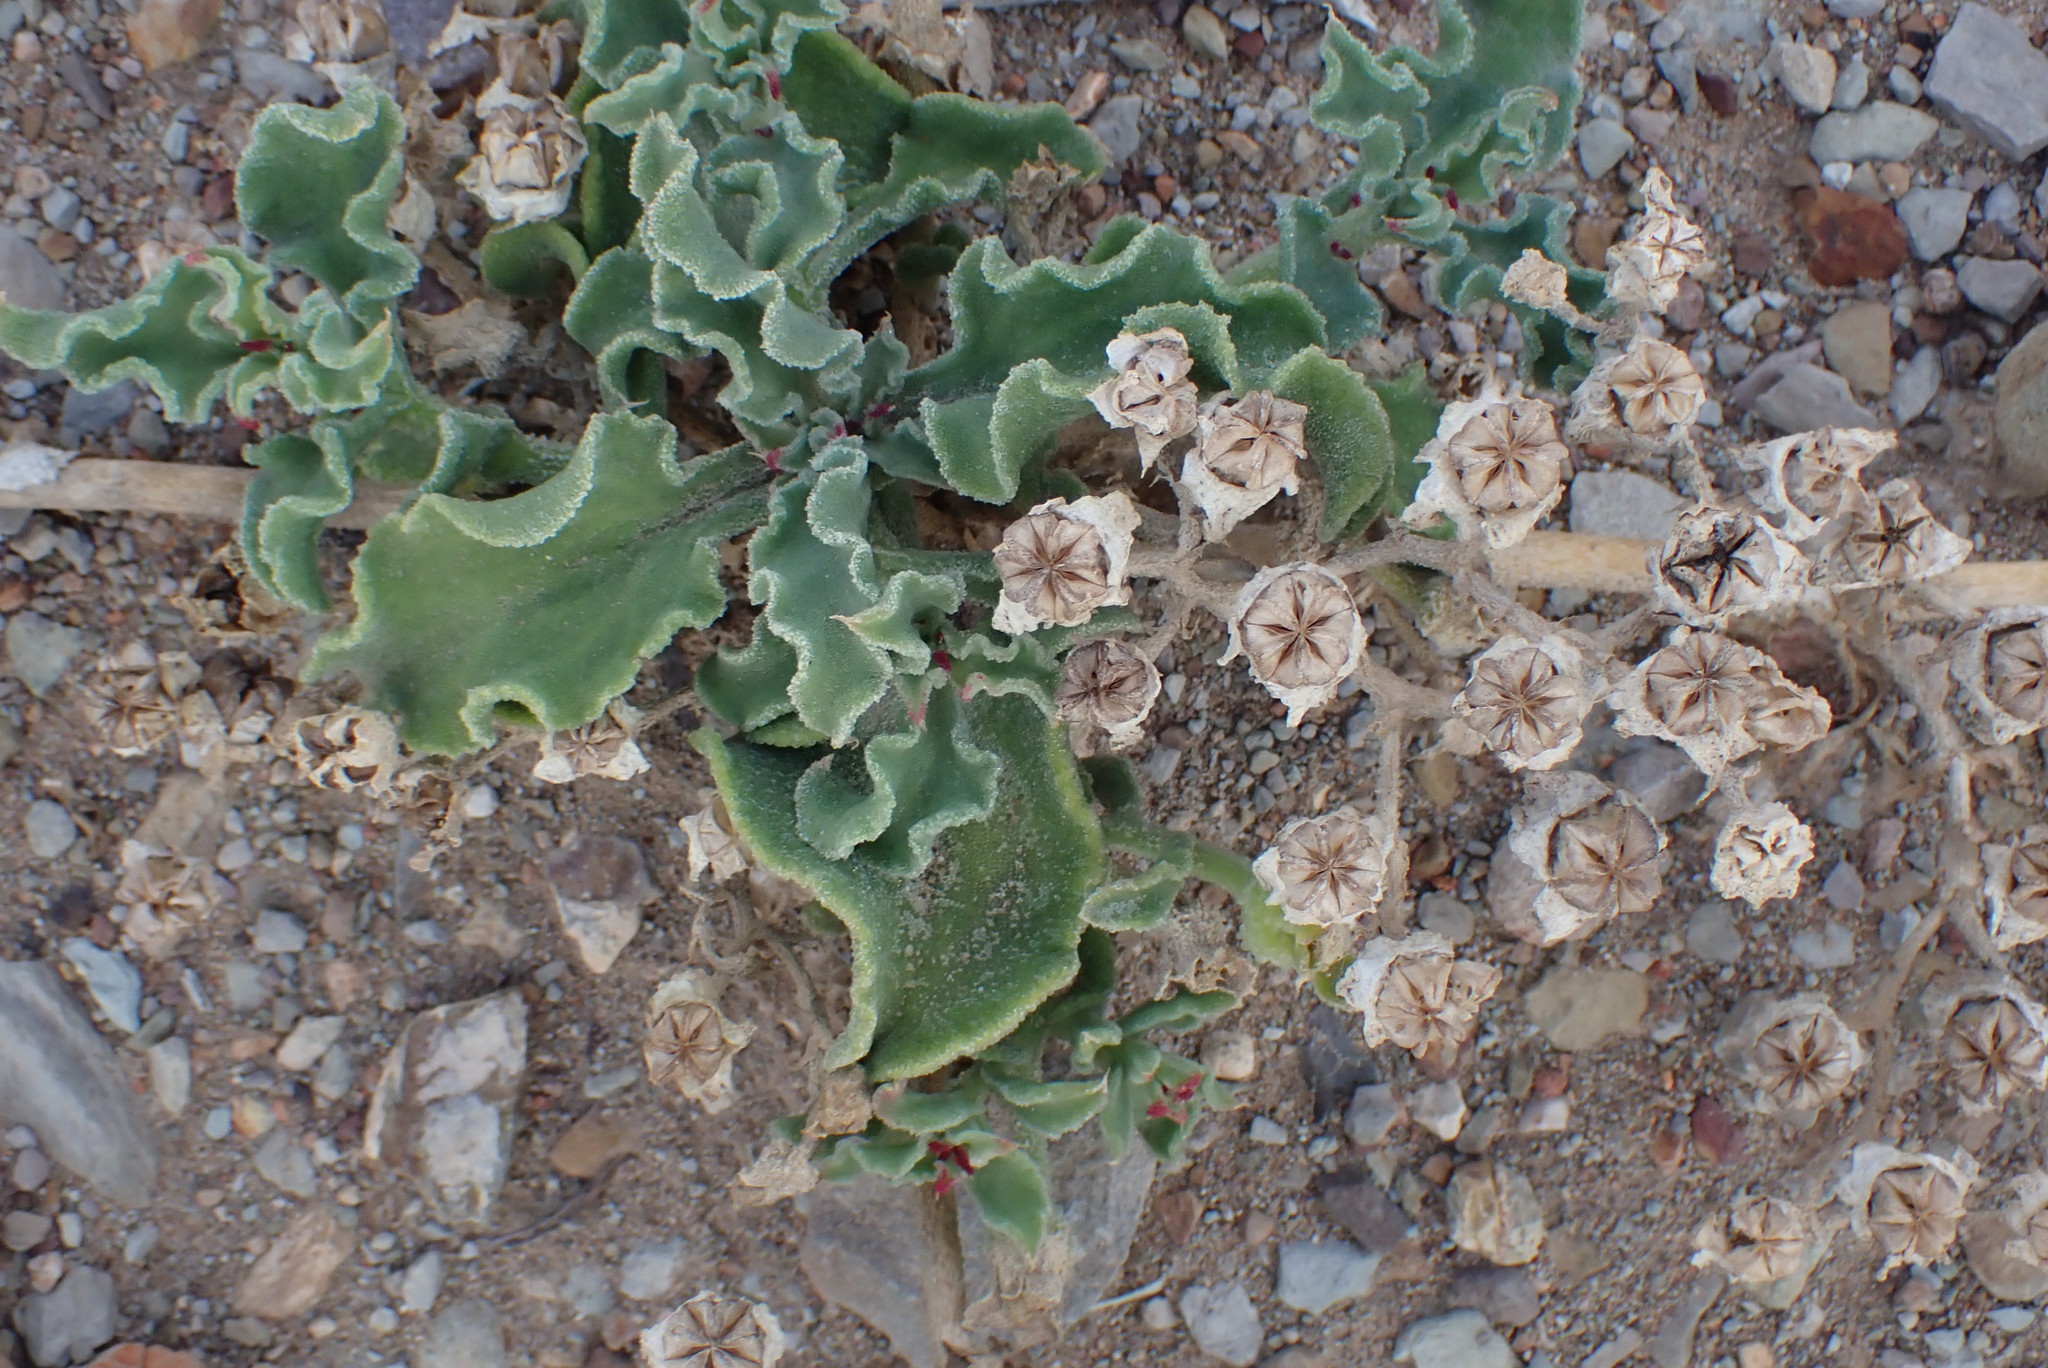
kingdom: Plantae
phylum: Tracheophyta
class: Magnoliopsida
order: Caryophyllales
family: Aizoaceae
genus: Mesembryanthemum
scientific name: Mesembryanthemum crystallinum
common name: Common iceplant
